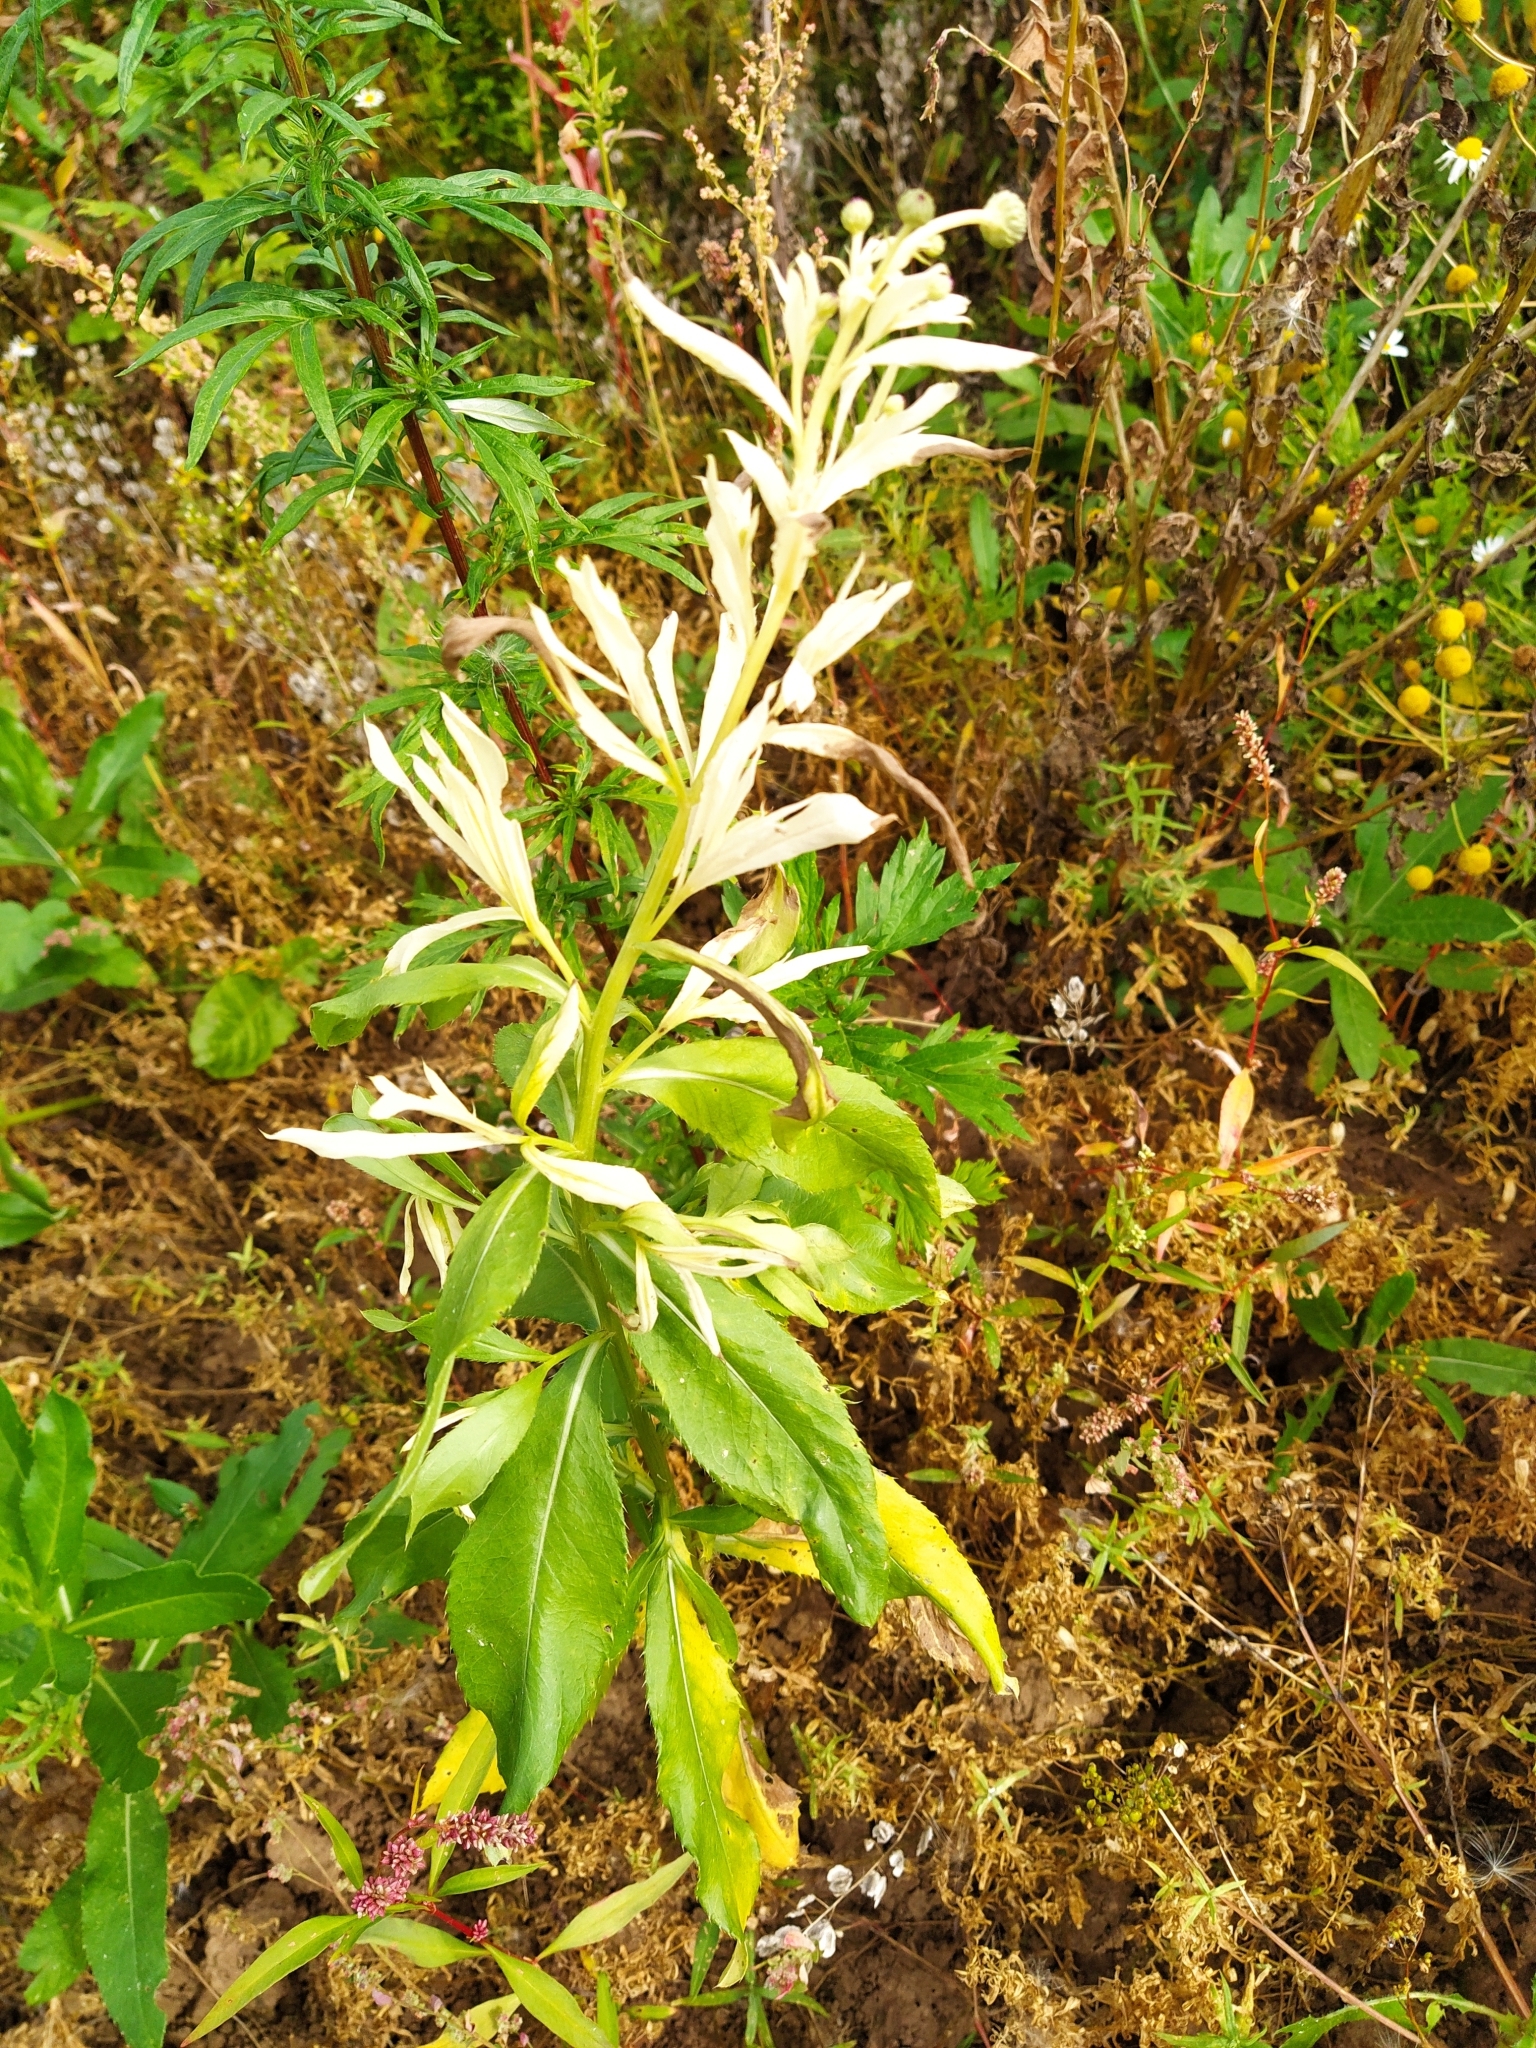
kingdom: Bacteria
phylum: Proteobacteria
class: Gammaproteobacteria
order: Pseudomonadales
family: Pseudomonadaceae
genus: Pseudomonas
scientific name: Pseudomonas syringae
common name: Bacterial speck
